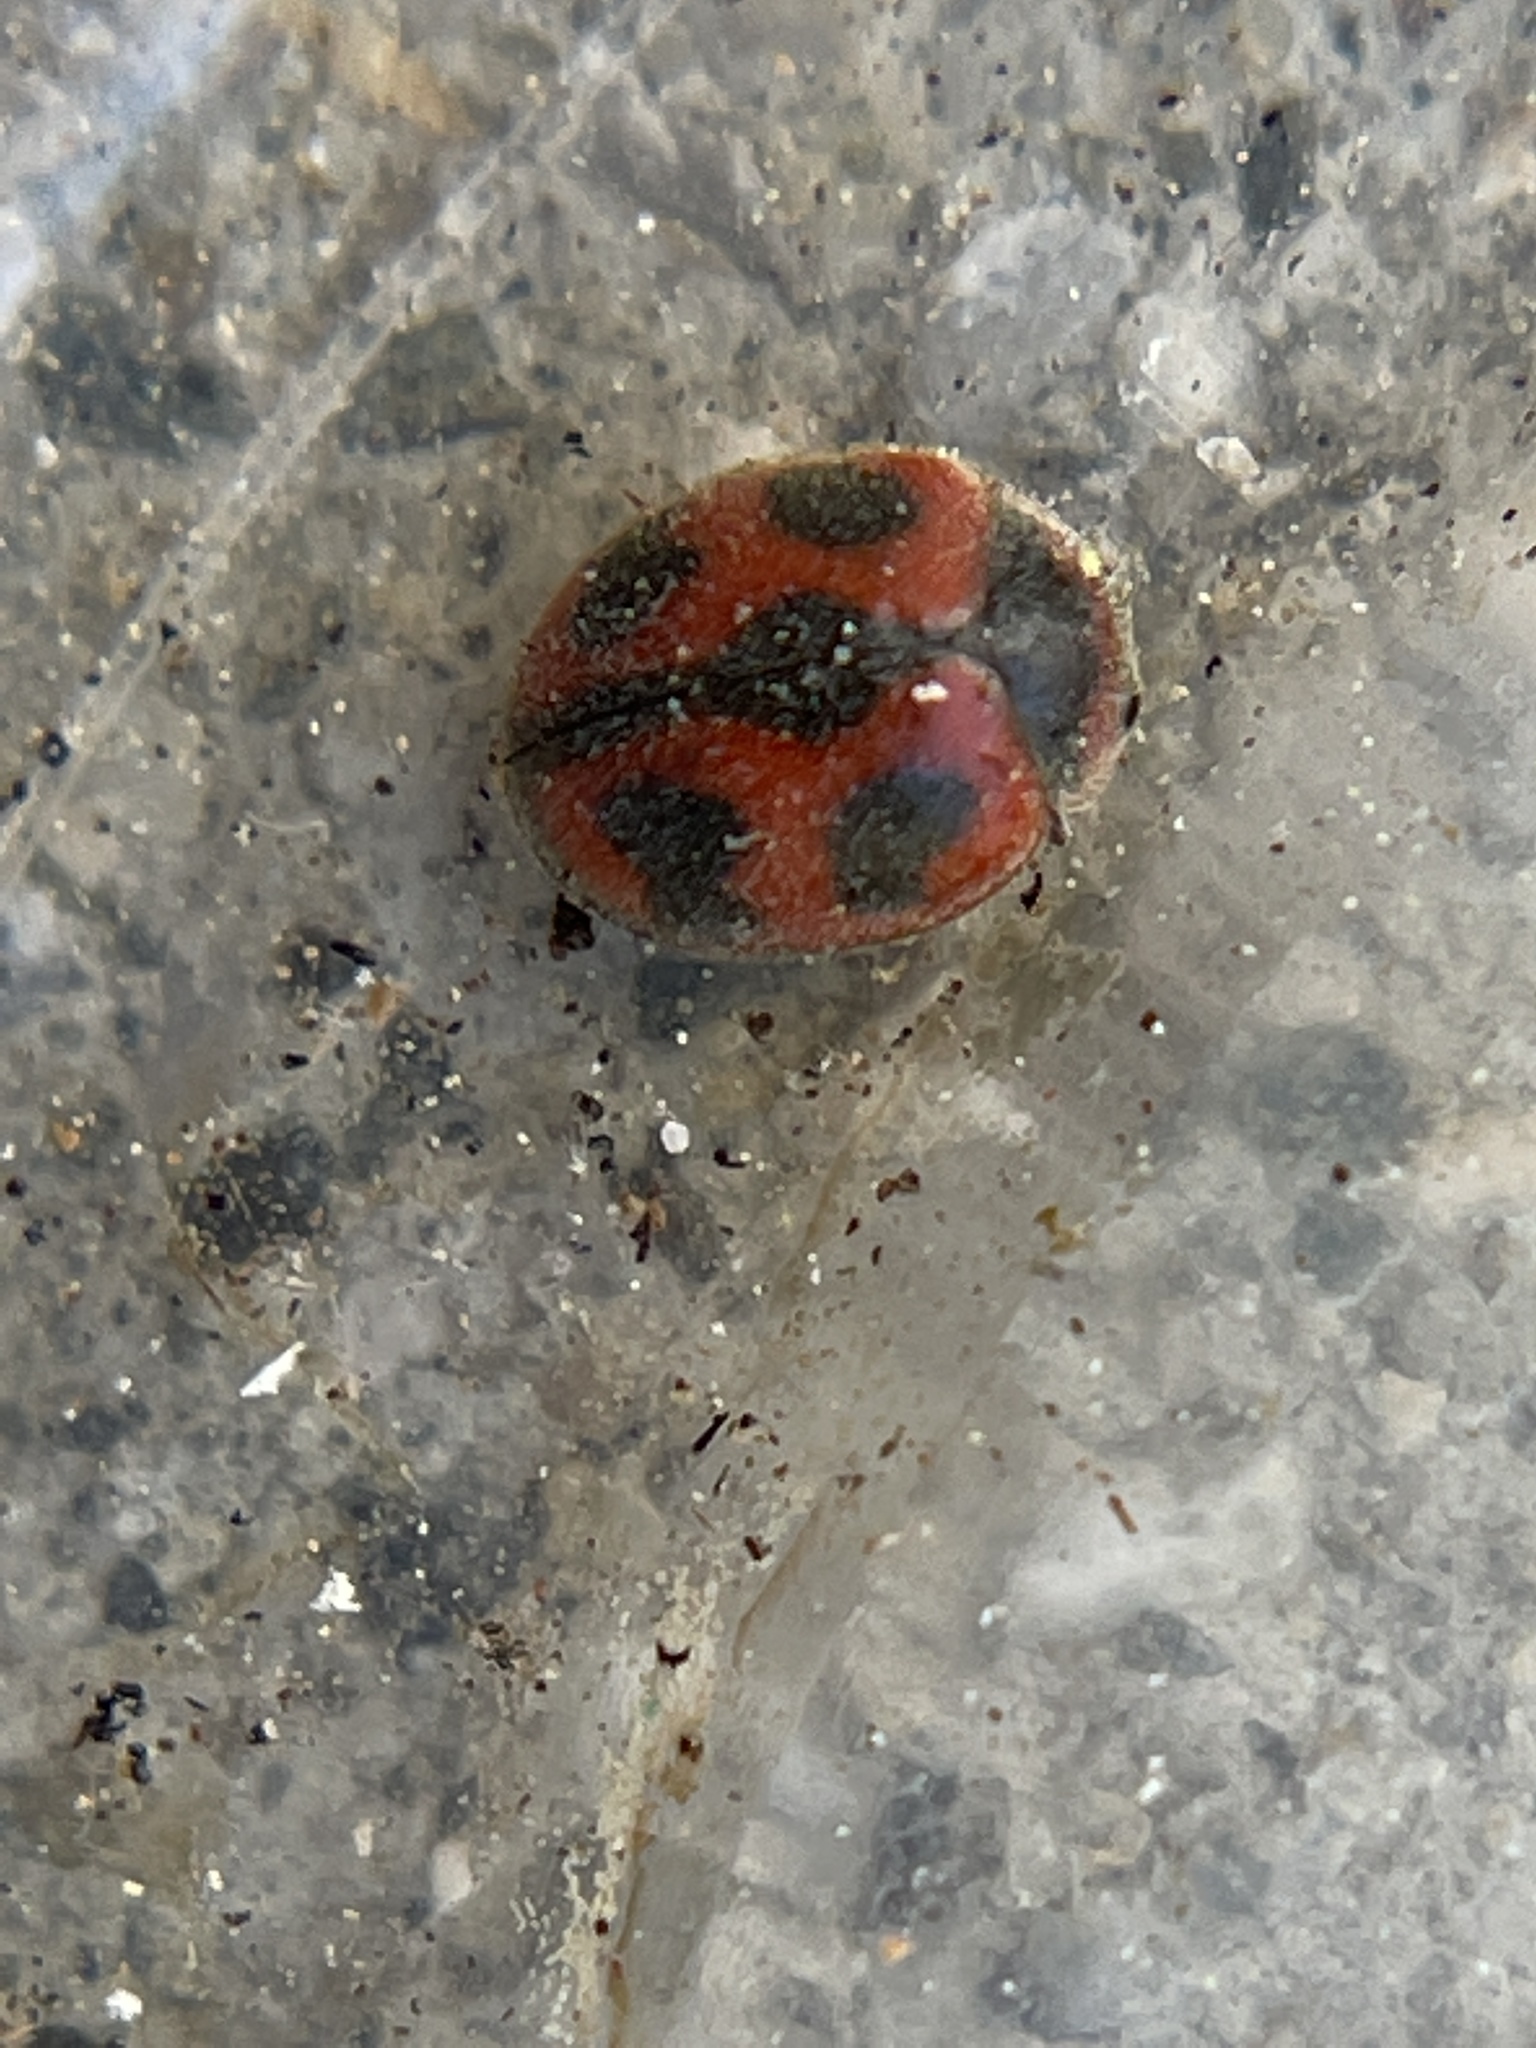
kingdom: Animalia
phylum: Arthropoda
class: Insecta
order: Coleoptera
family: Coccinellidae
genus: Novius
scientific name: Novius cardinalis
